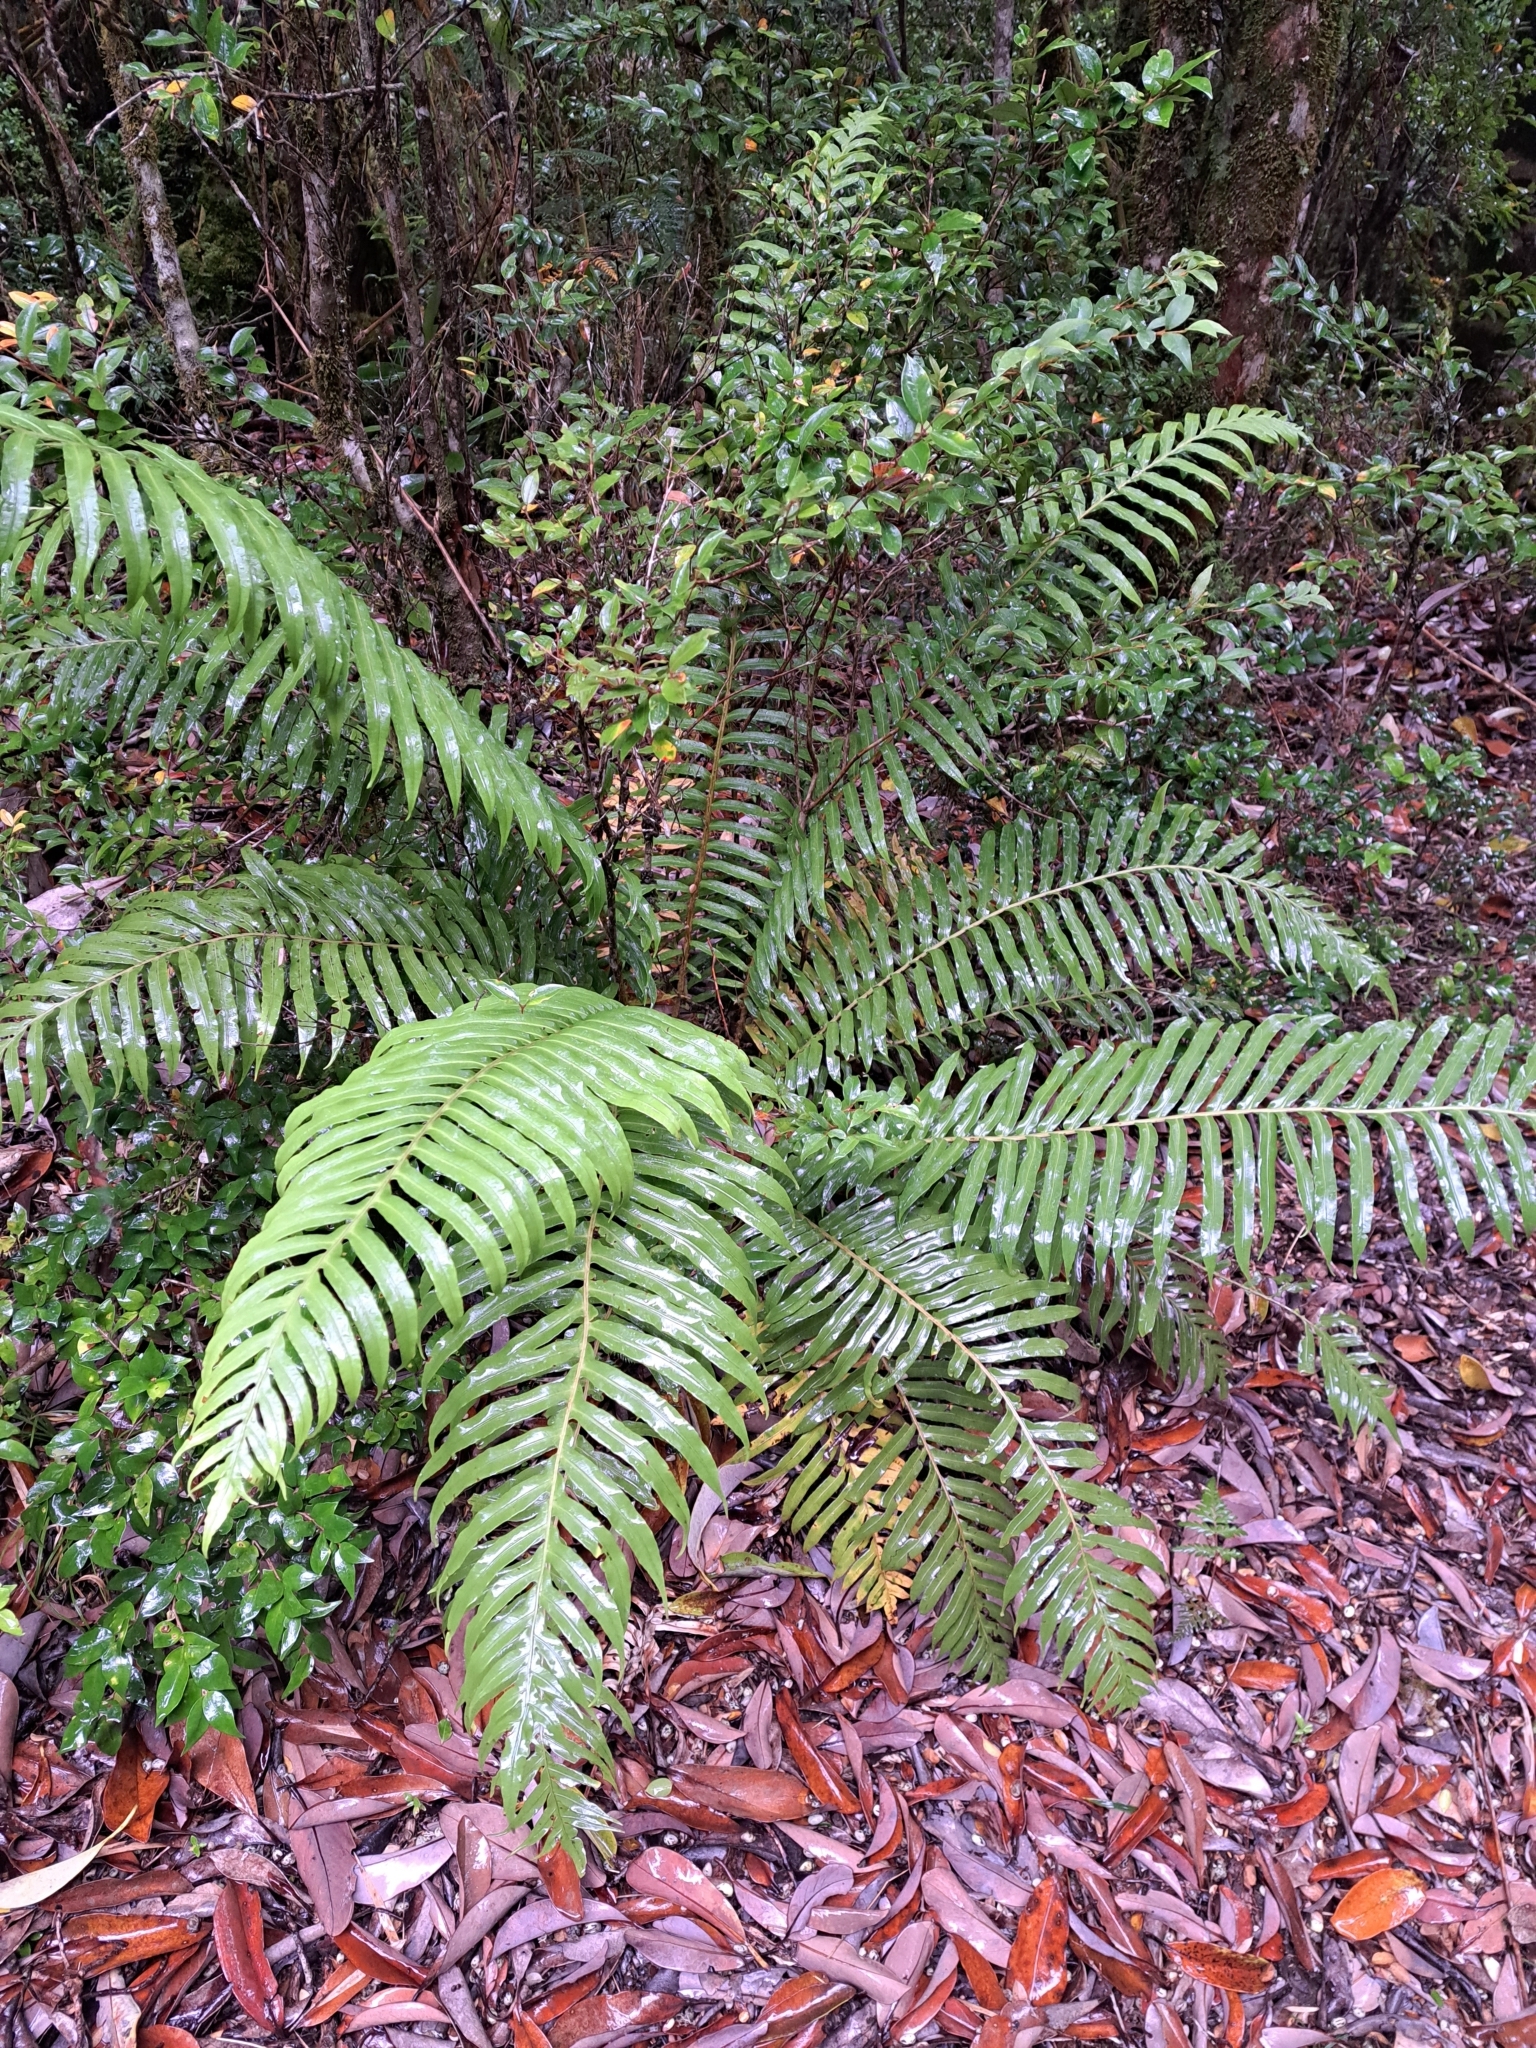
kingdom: Plantae
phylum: Tracheophyta
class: Polypodiopsida
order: Polypodiales
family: Blechnaceae
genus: Lomariocycas
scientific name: Lomariocycas magellanica
